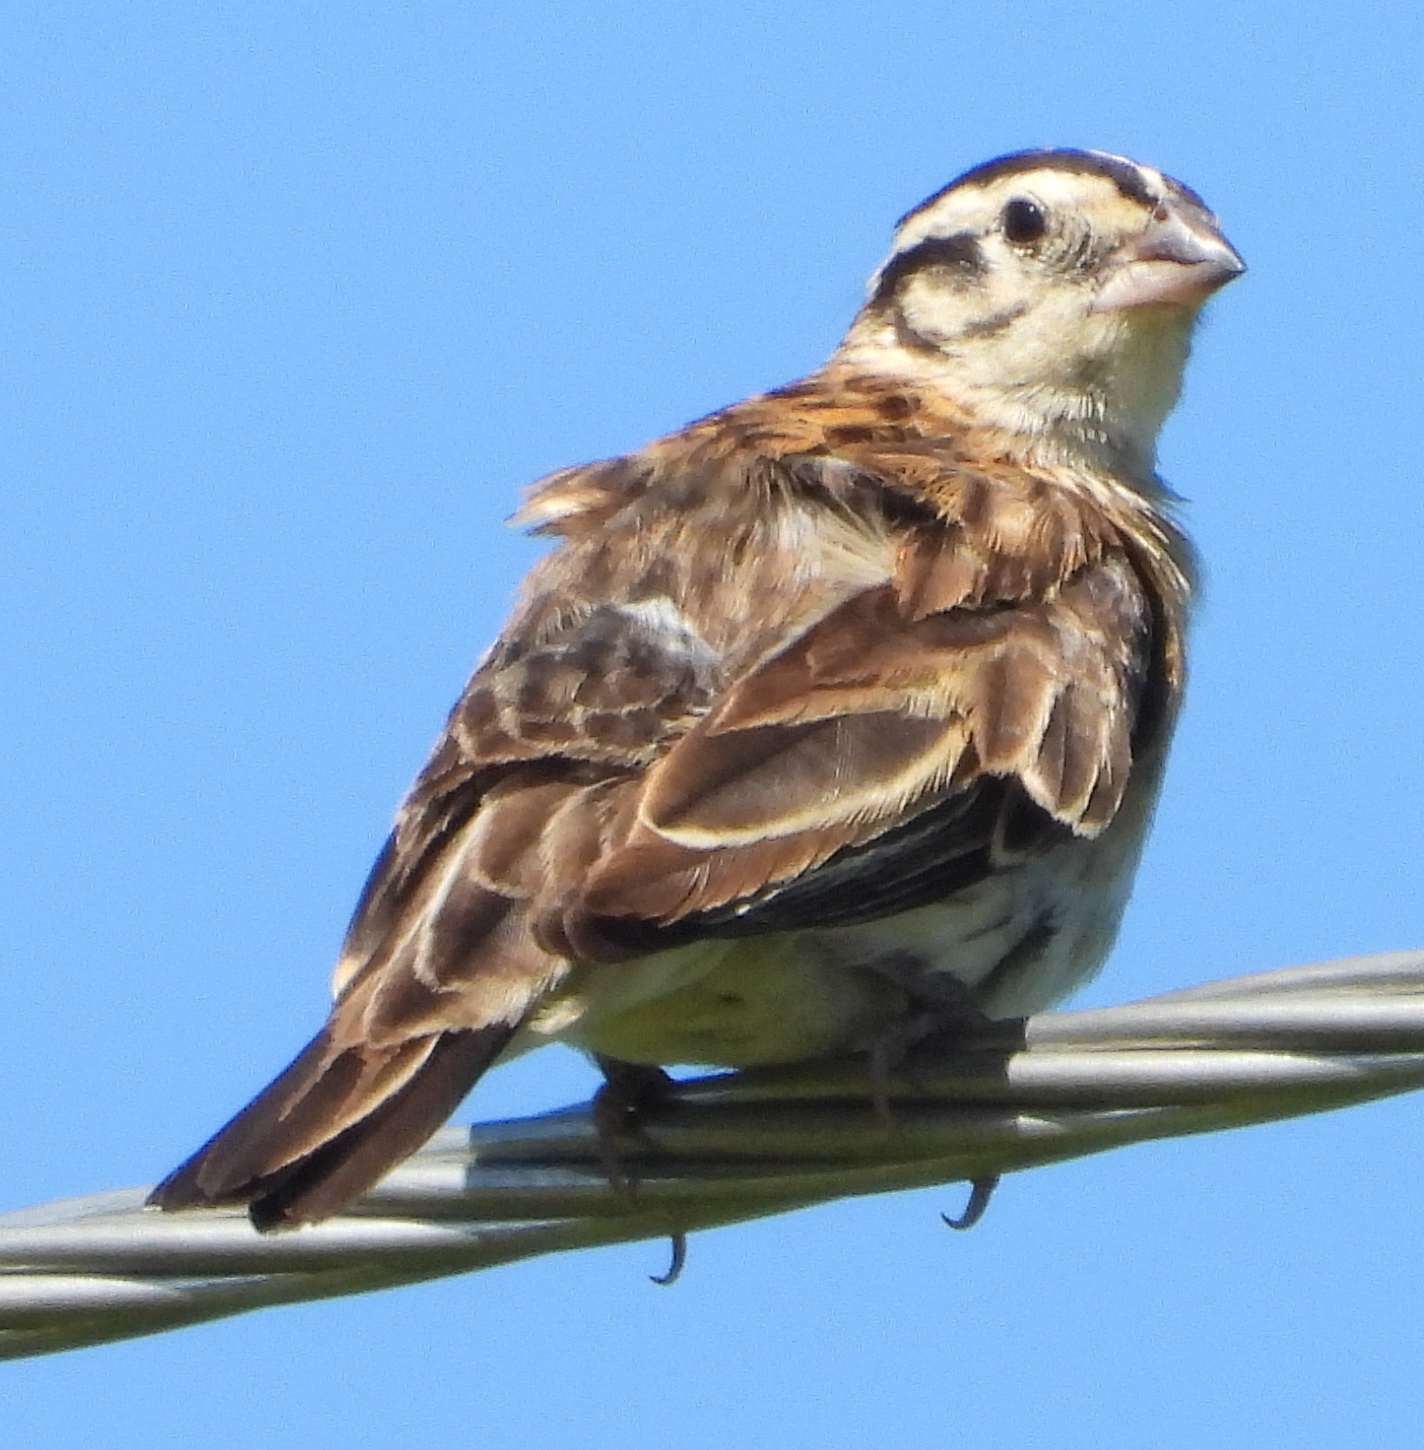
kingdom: Animalia
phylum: Chordata
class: Aves
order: Passeriformes
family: Viduidae
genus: Vidua
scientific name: Vidua paradisaea
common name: Long-tailed paradise whydah
